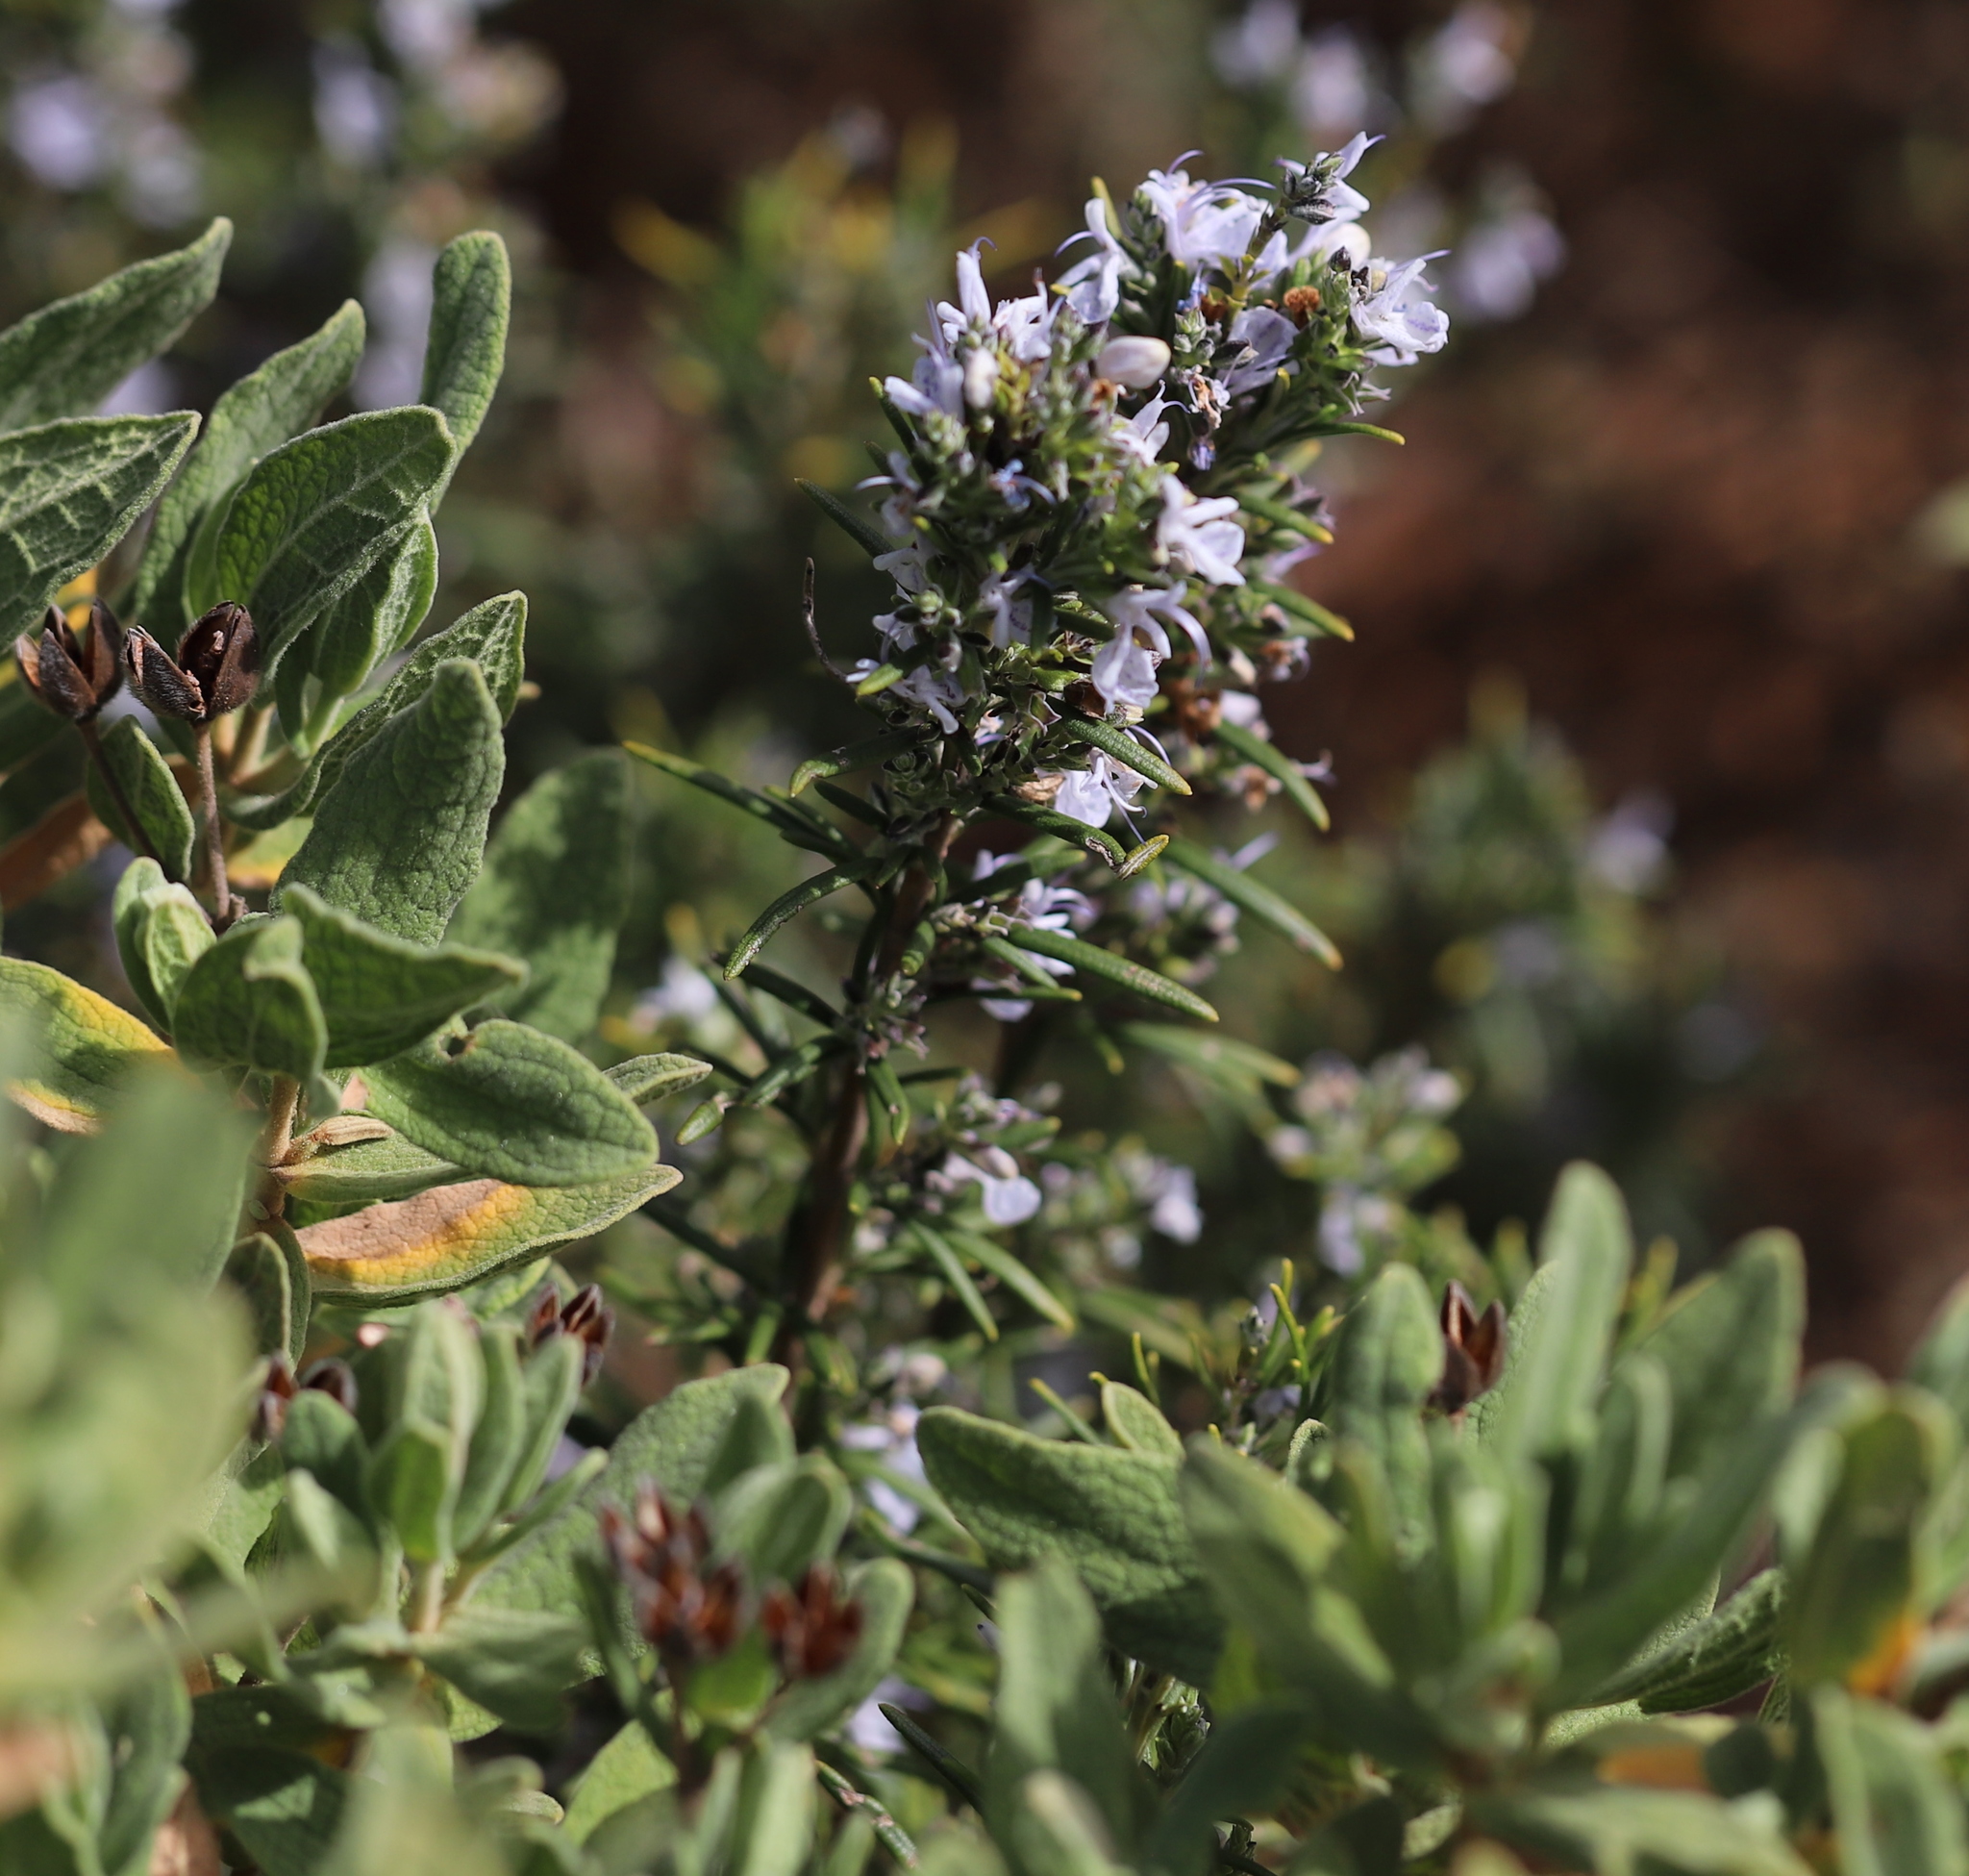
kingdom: Plantae
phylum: Tracheophyta
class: Magnoliopsida
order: Lamiales
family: Lamiaceae
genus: Salvia
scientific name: Salvia rosmarinus
